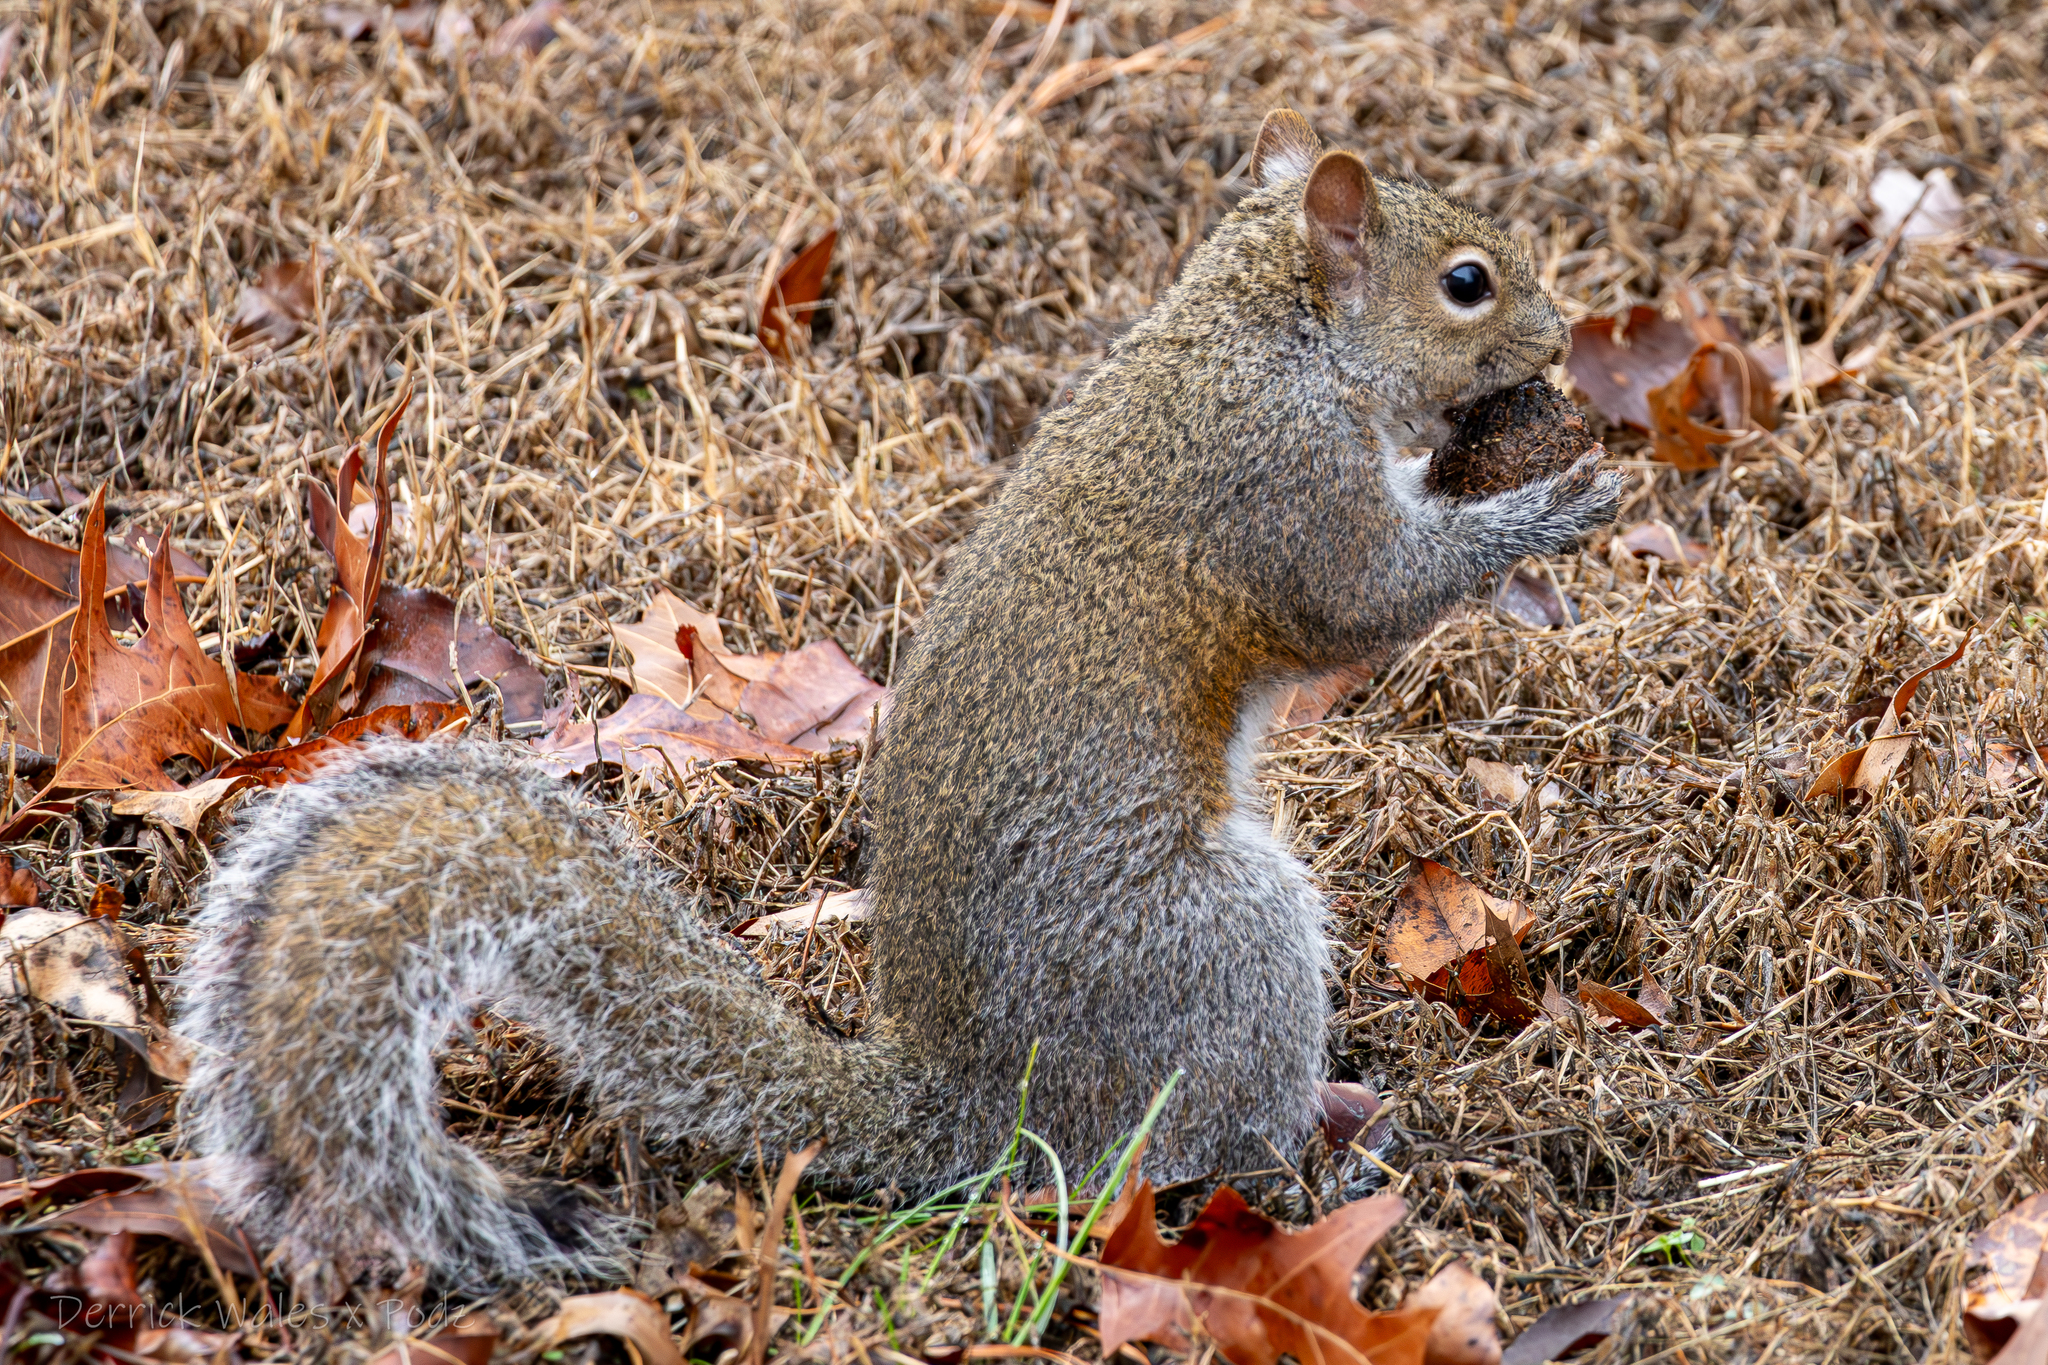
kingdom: Animalia
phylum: Chordata
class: Mammalia
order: Rodentia
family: Sciuridae
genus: Sciurus
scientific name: Sciurus carolinensis
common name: Eastern gray squirrel
